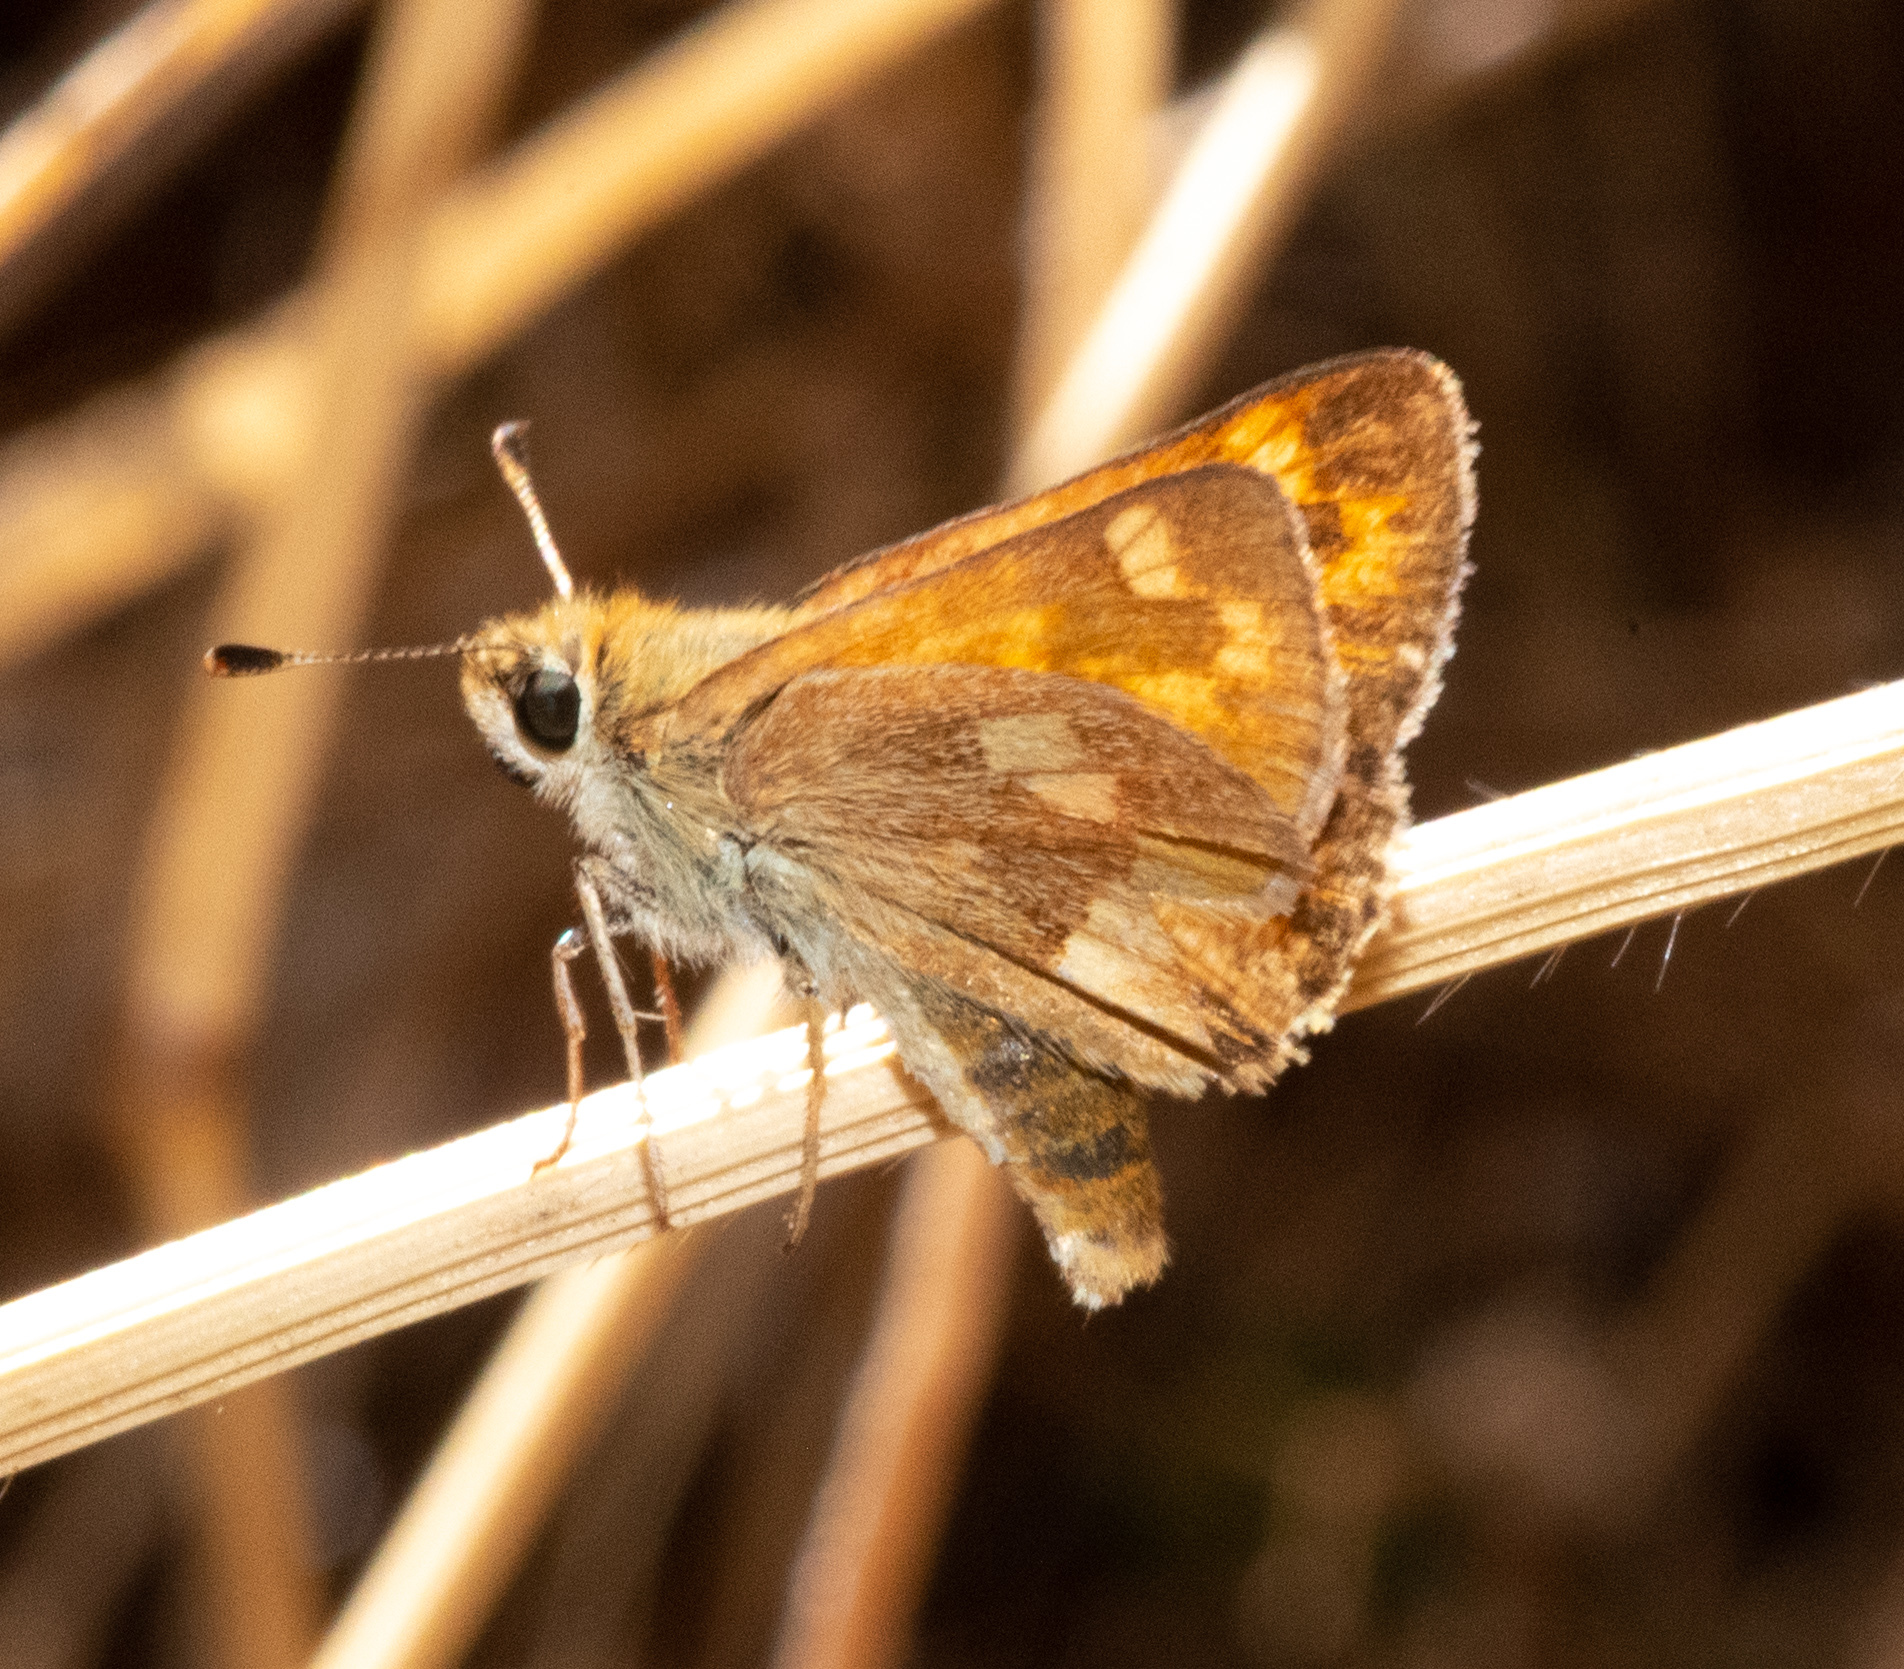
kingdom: Animalia
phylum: Arthropoda
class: Insecta
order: Lepidoptera
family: Hesperiidae
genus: Ochlodes
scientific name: Ochlodes sylvanoides
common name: Woodland skipper
